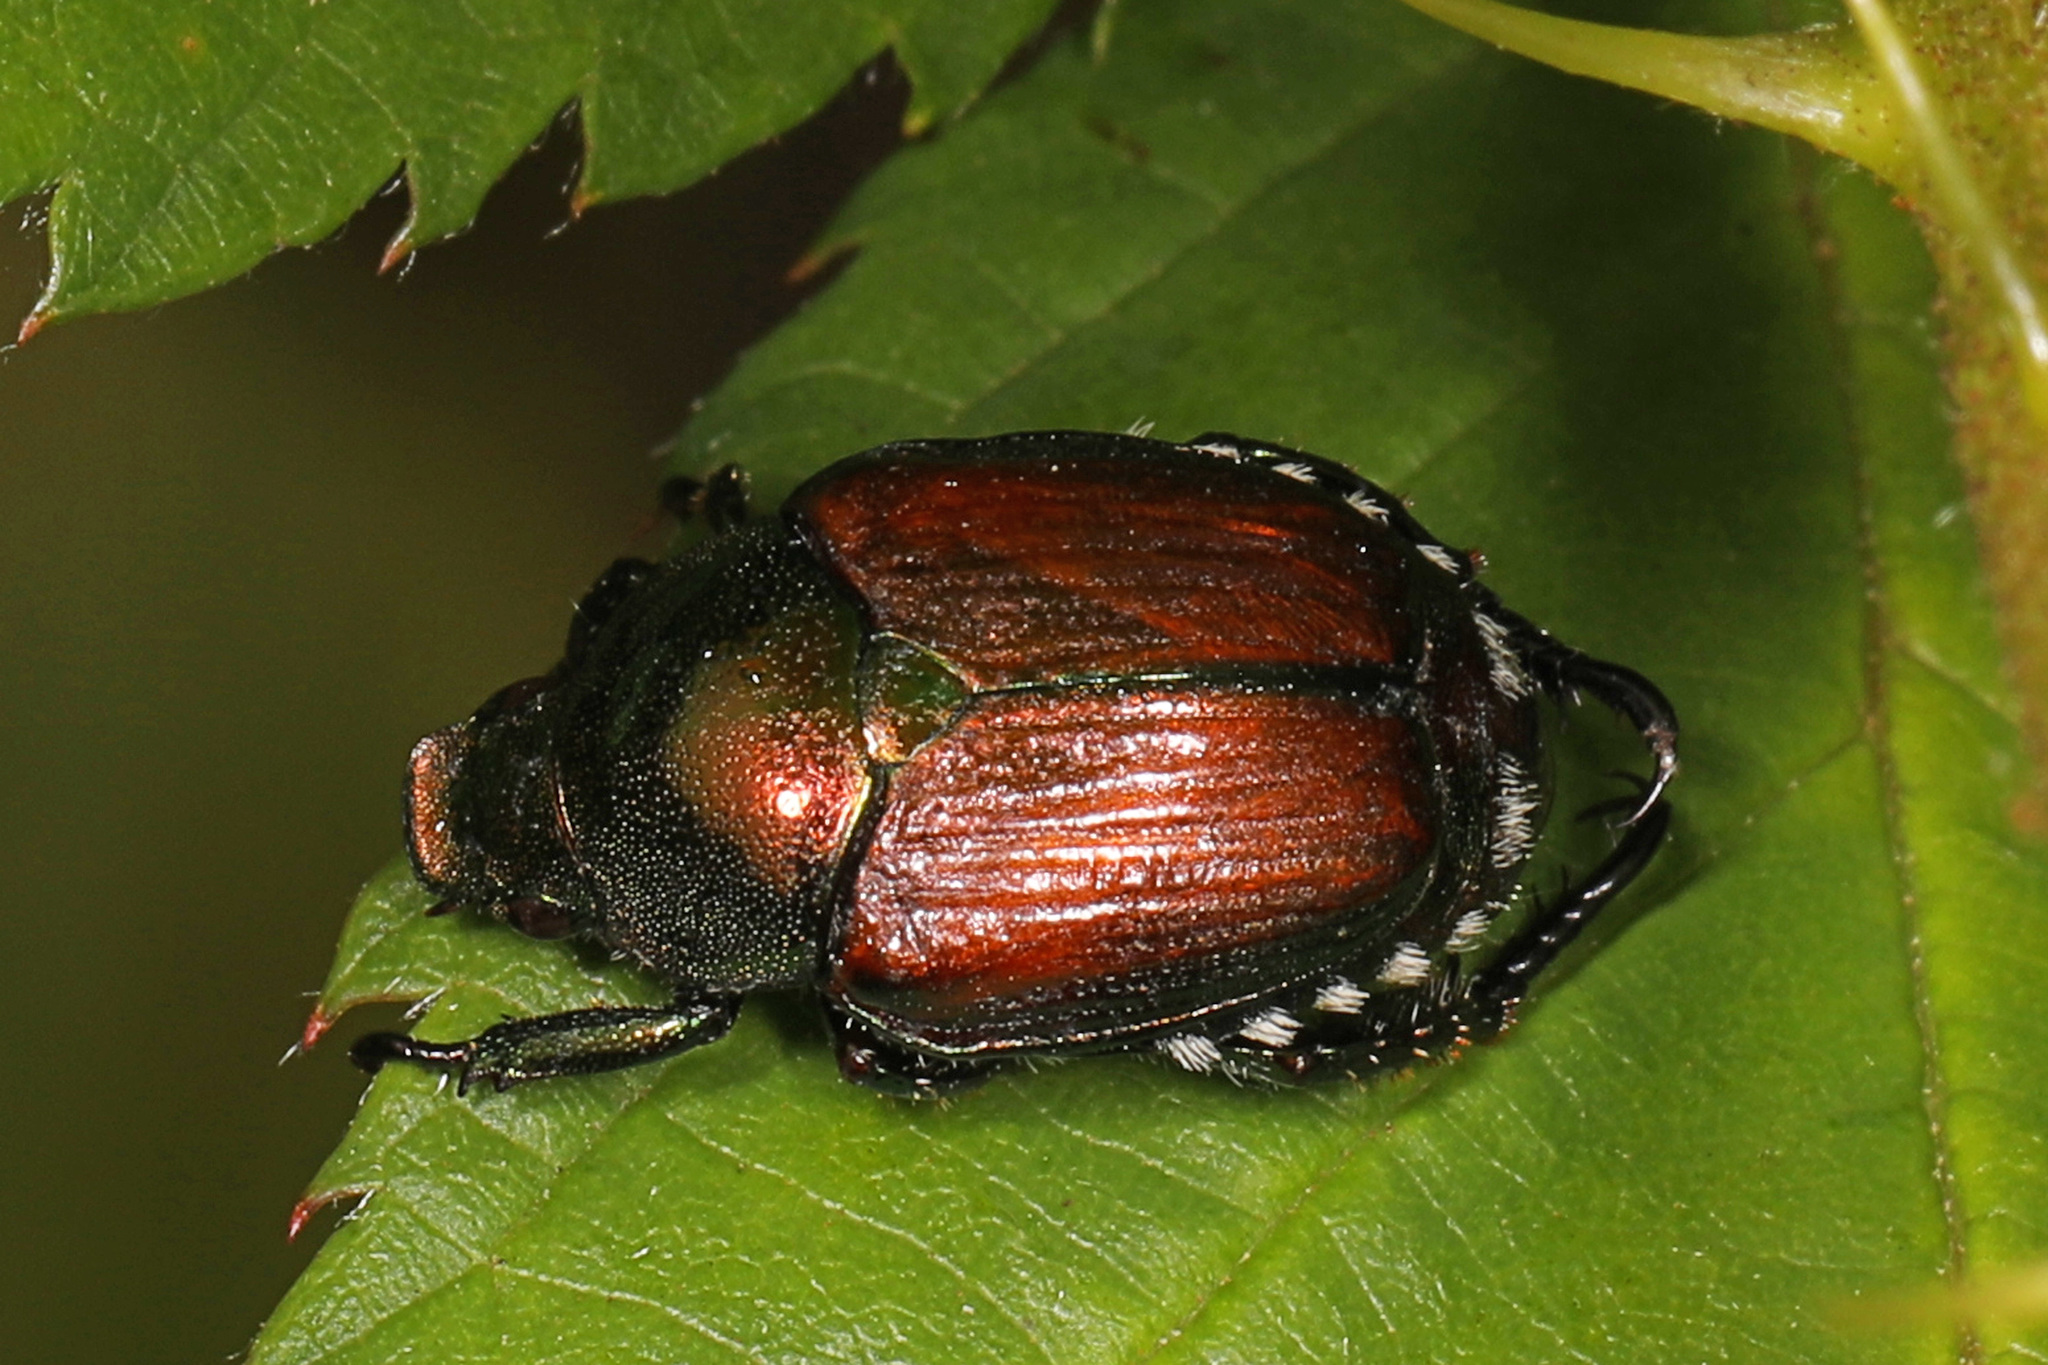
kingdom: Animalia
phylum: Arthropoda
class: Insecta
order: Coleoptera
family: Scarabaeidae
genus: Popillia
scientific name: Popillia japonica
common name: Japanese beetle
